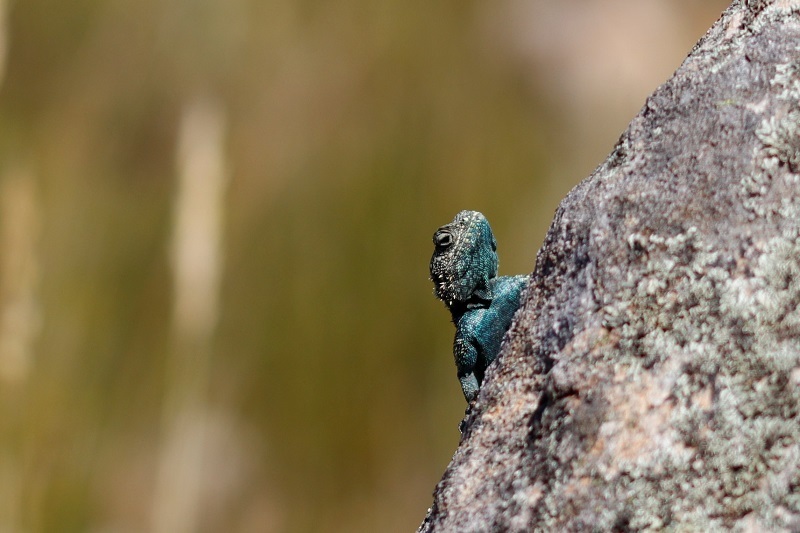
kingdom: Animalia
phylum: Chordata
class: Squamata
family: Agamidae
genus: Agama
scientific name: Agama atra
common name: Southern african rock agama
